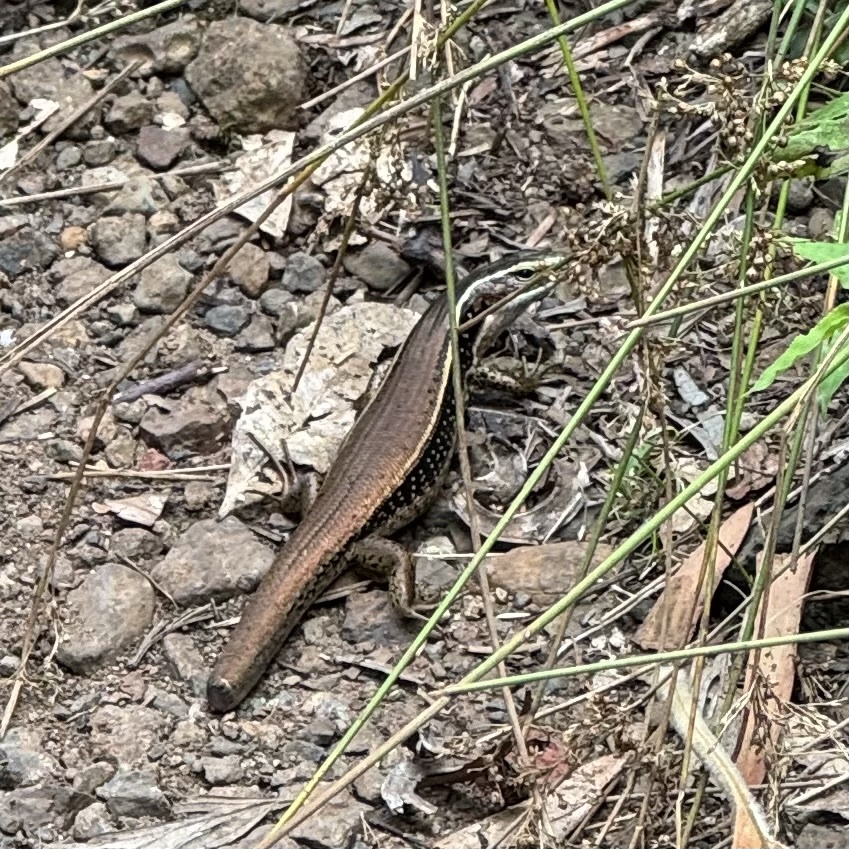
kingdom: Animalia
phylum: Chordata
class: Squamata
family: Scincidae
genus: Eulamprus
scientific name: Eulamprus quoyii
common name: Eastern water skink
